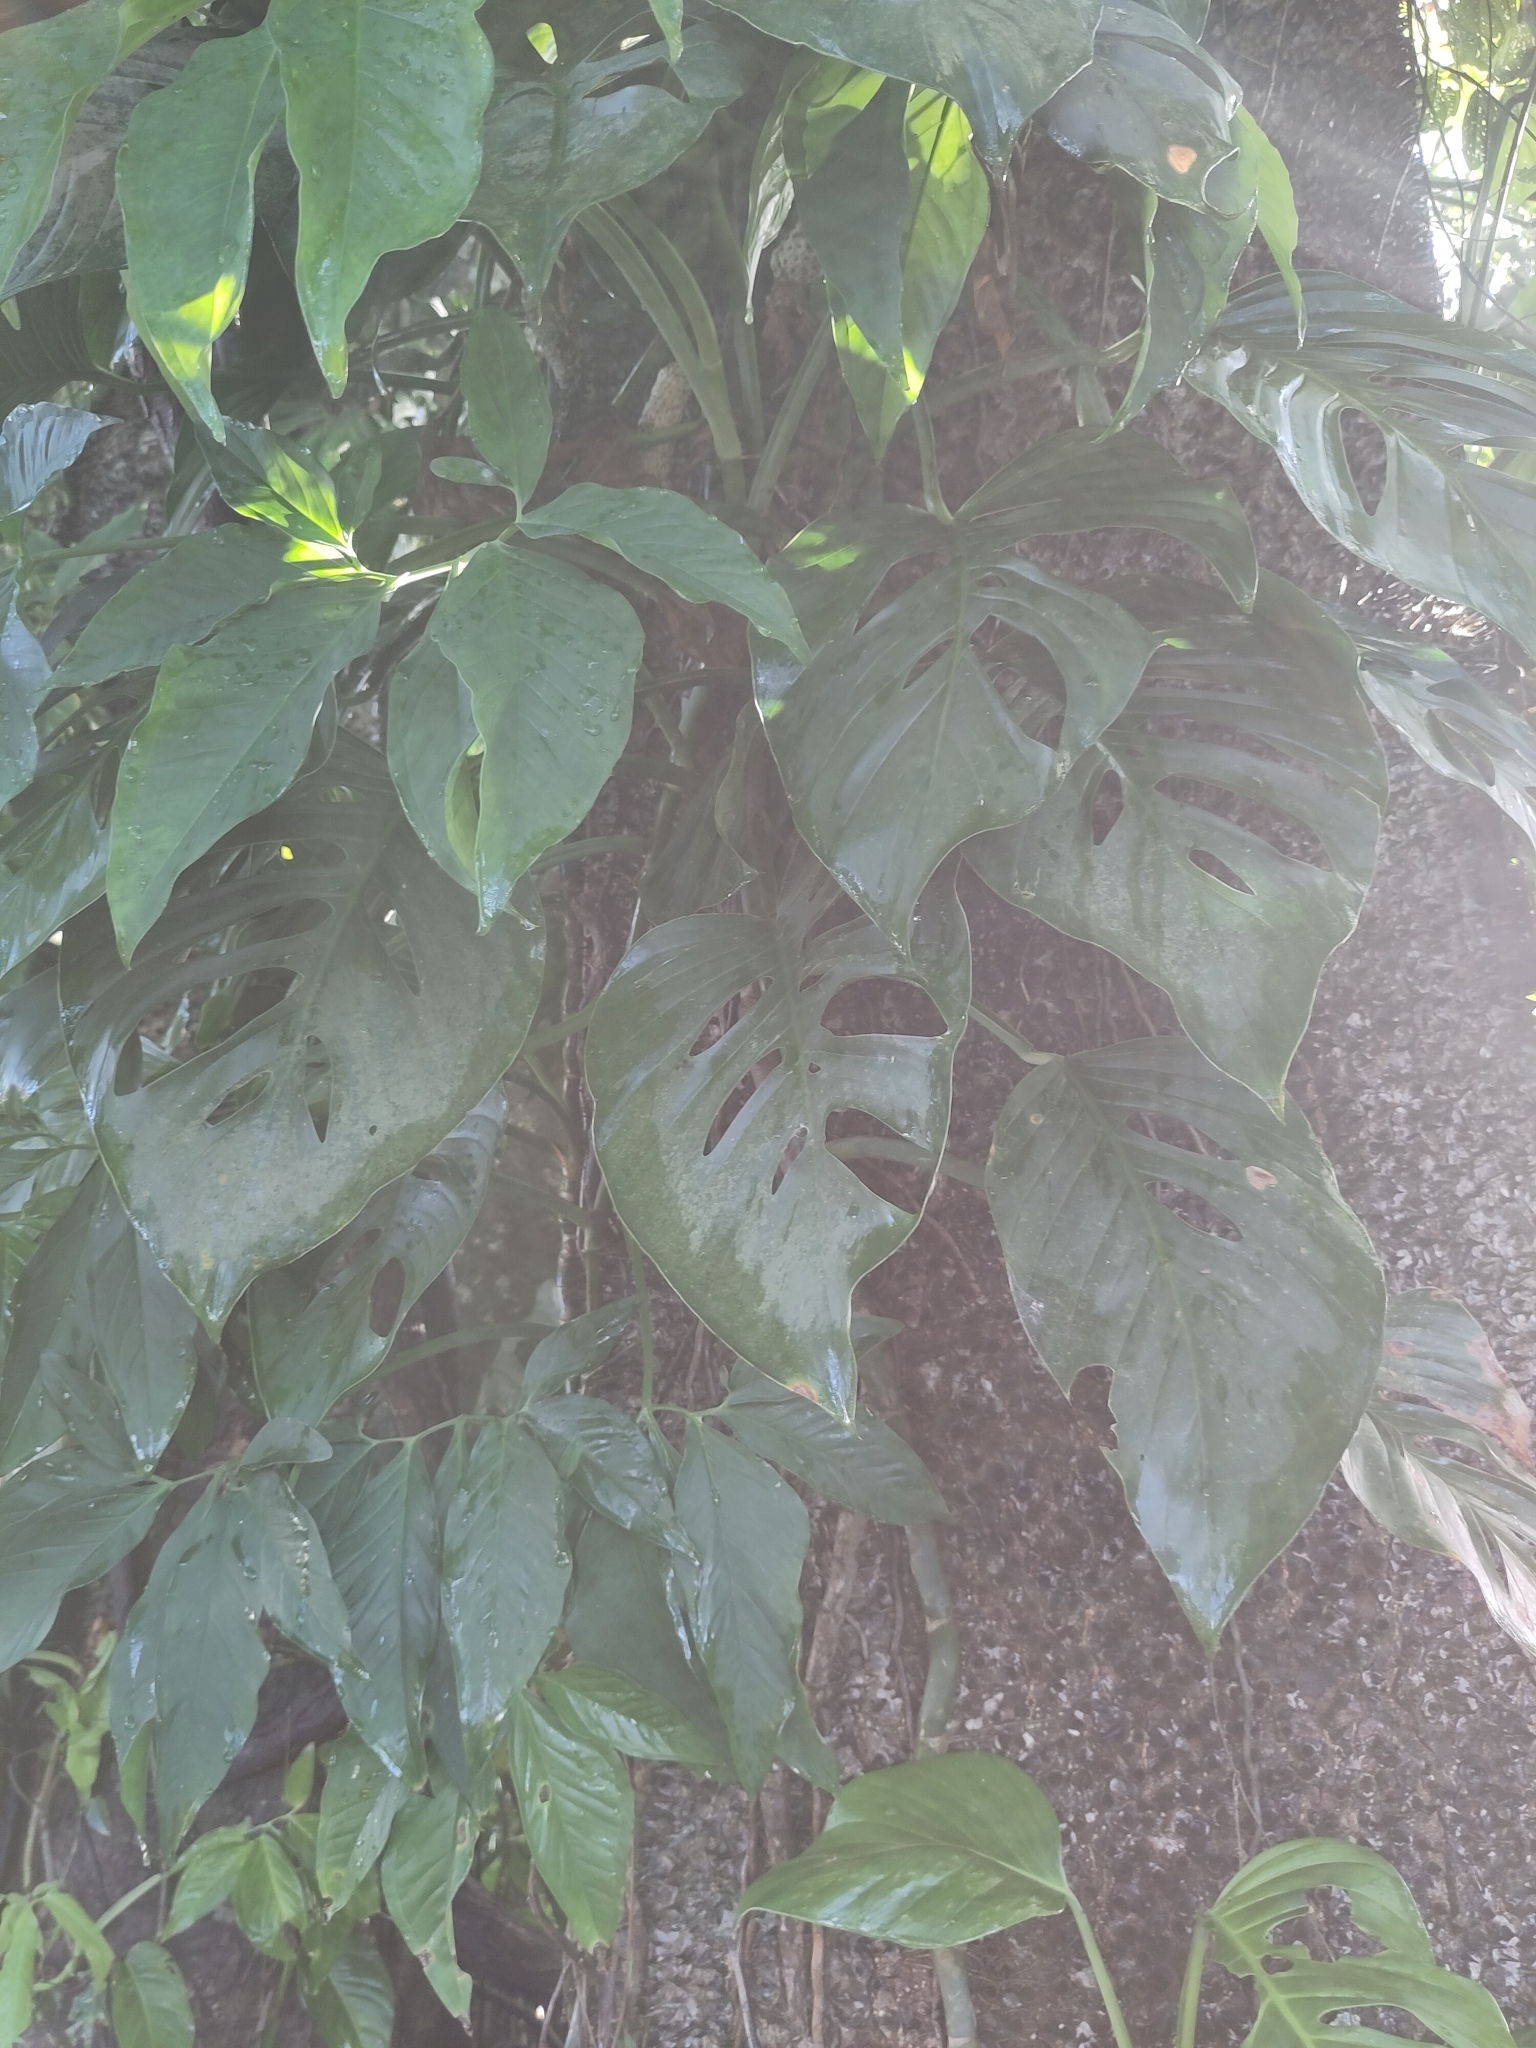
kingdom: Plantae
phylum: Tracheophyta
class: Liliopsida
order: Alismatales
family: Araceae
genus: Monstera
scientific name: Monstera adansonii
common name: Tarovine
